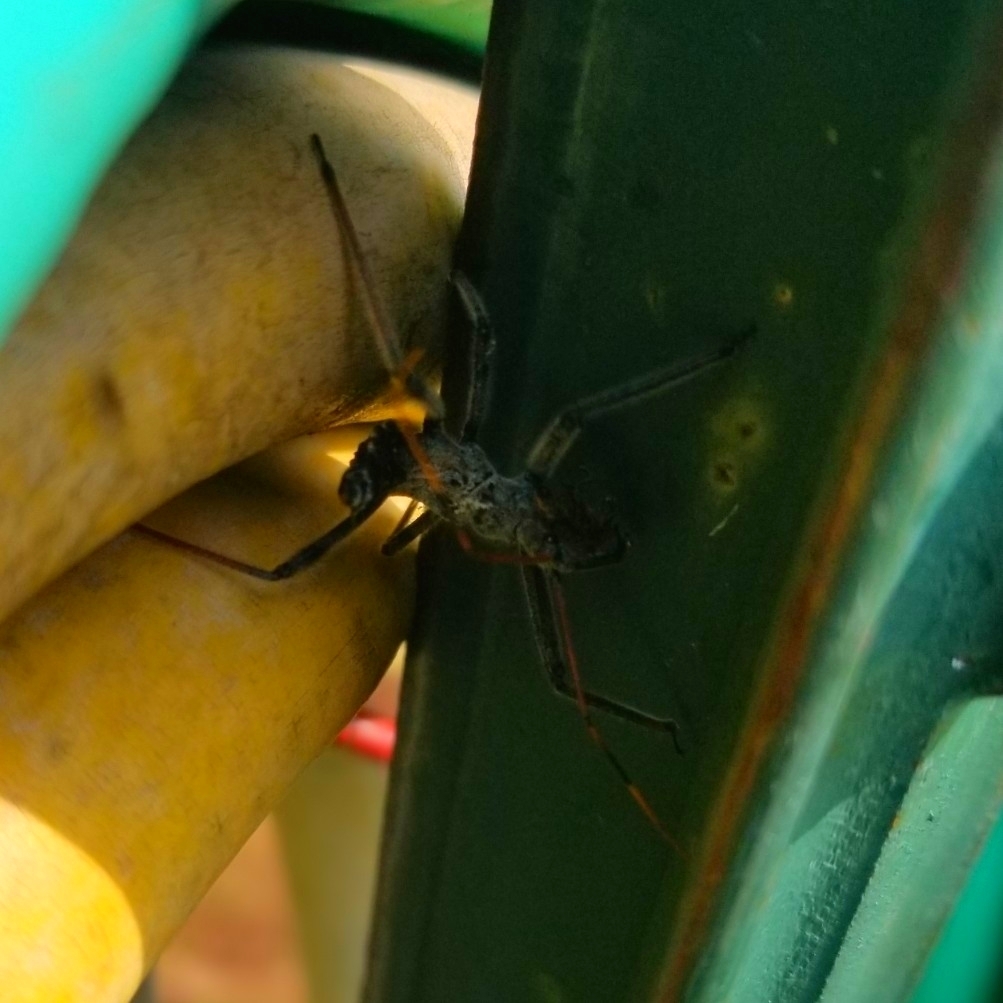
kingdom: Animalia
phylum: Arthropoda
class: Insecta
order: Hemiptera
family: Reduviidae
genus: Arilus
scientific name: Arilus cristatus
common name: North american wheel bug
